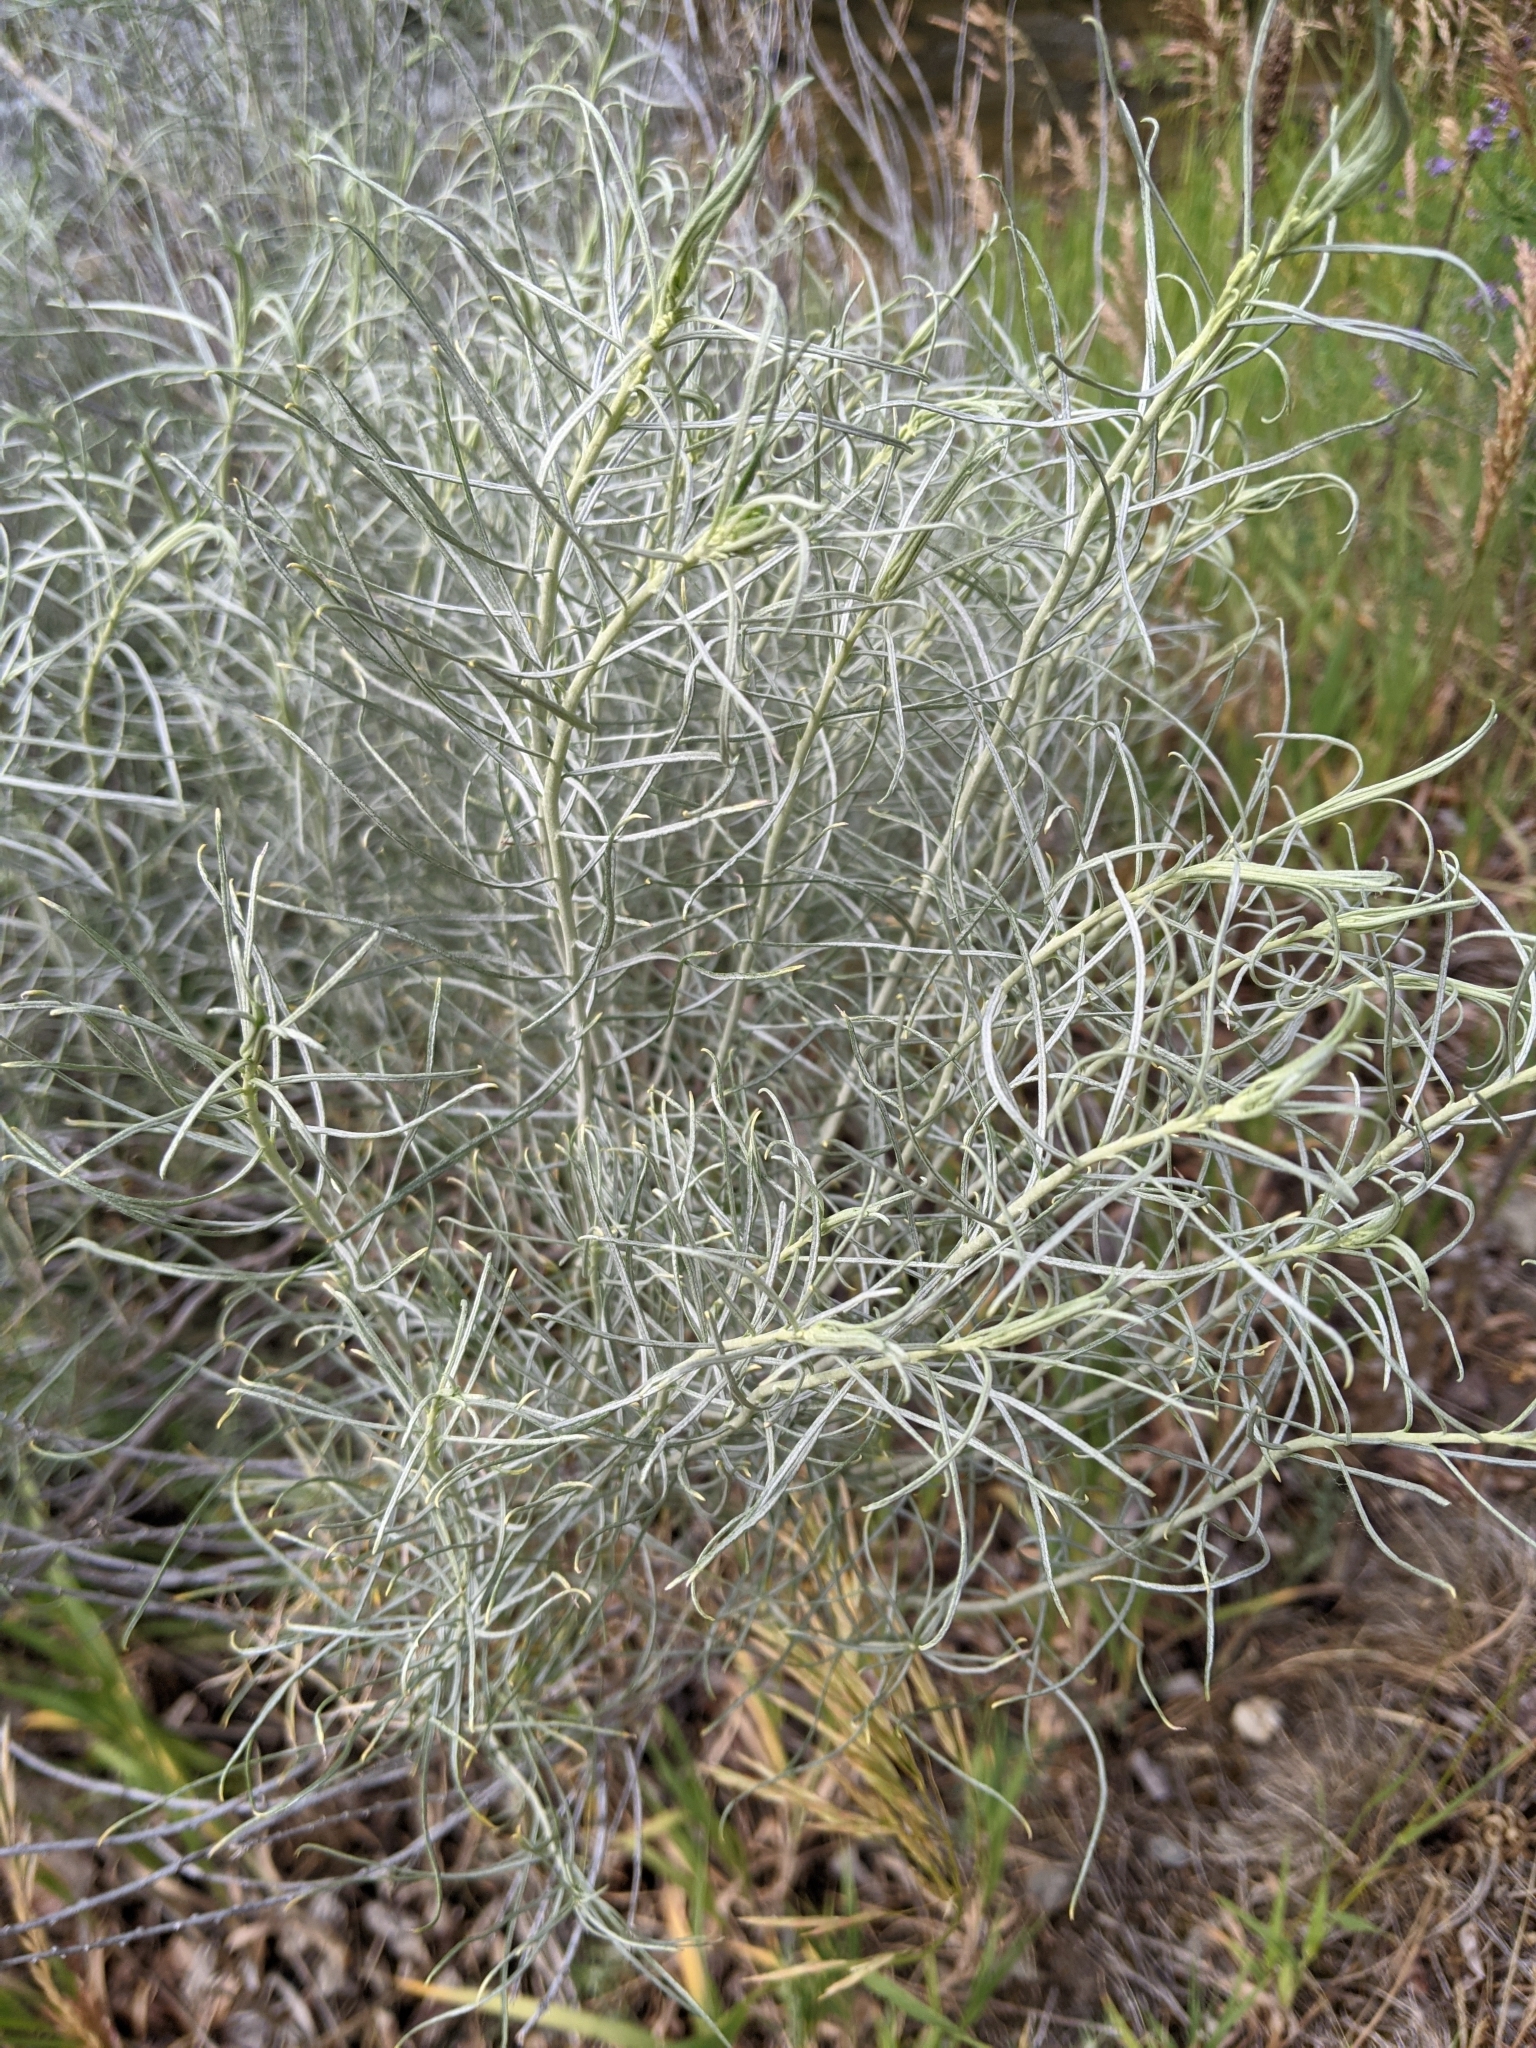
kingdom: Plantae
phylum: Tracheophyta
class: Magnoliopsida
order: Asterales
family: Asteraceae
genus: Ericameria
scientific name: Ericameria nauseosa
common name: Rubber rabbitbrush
